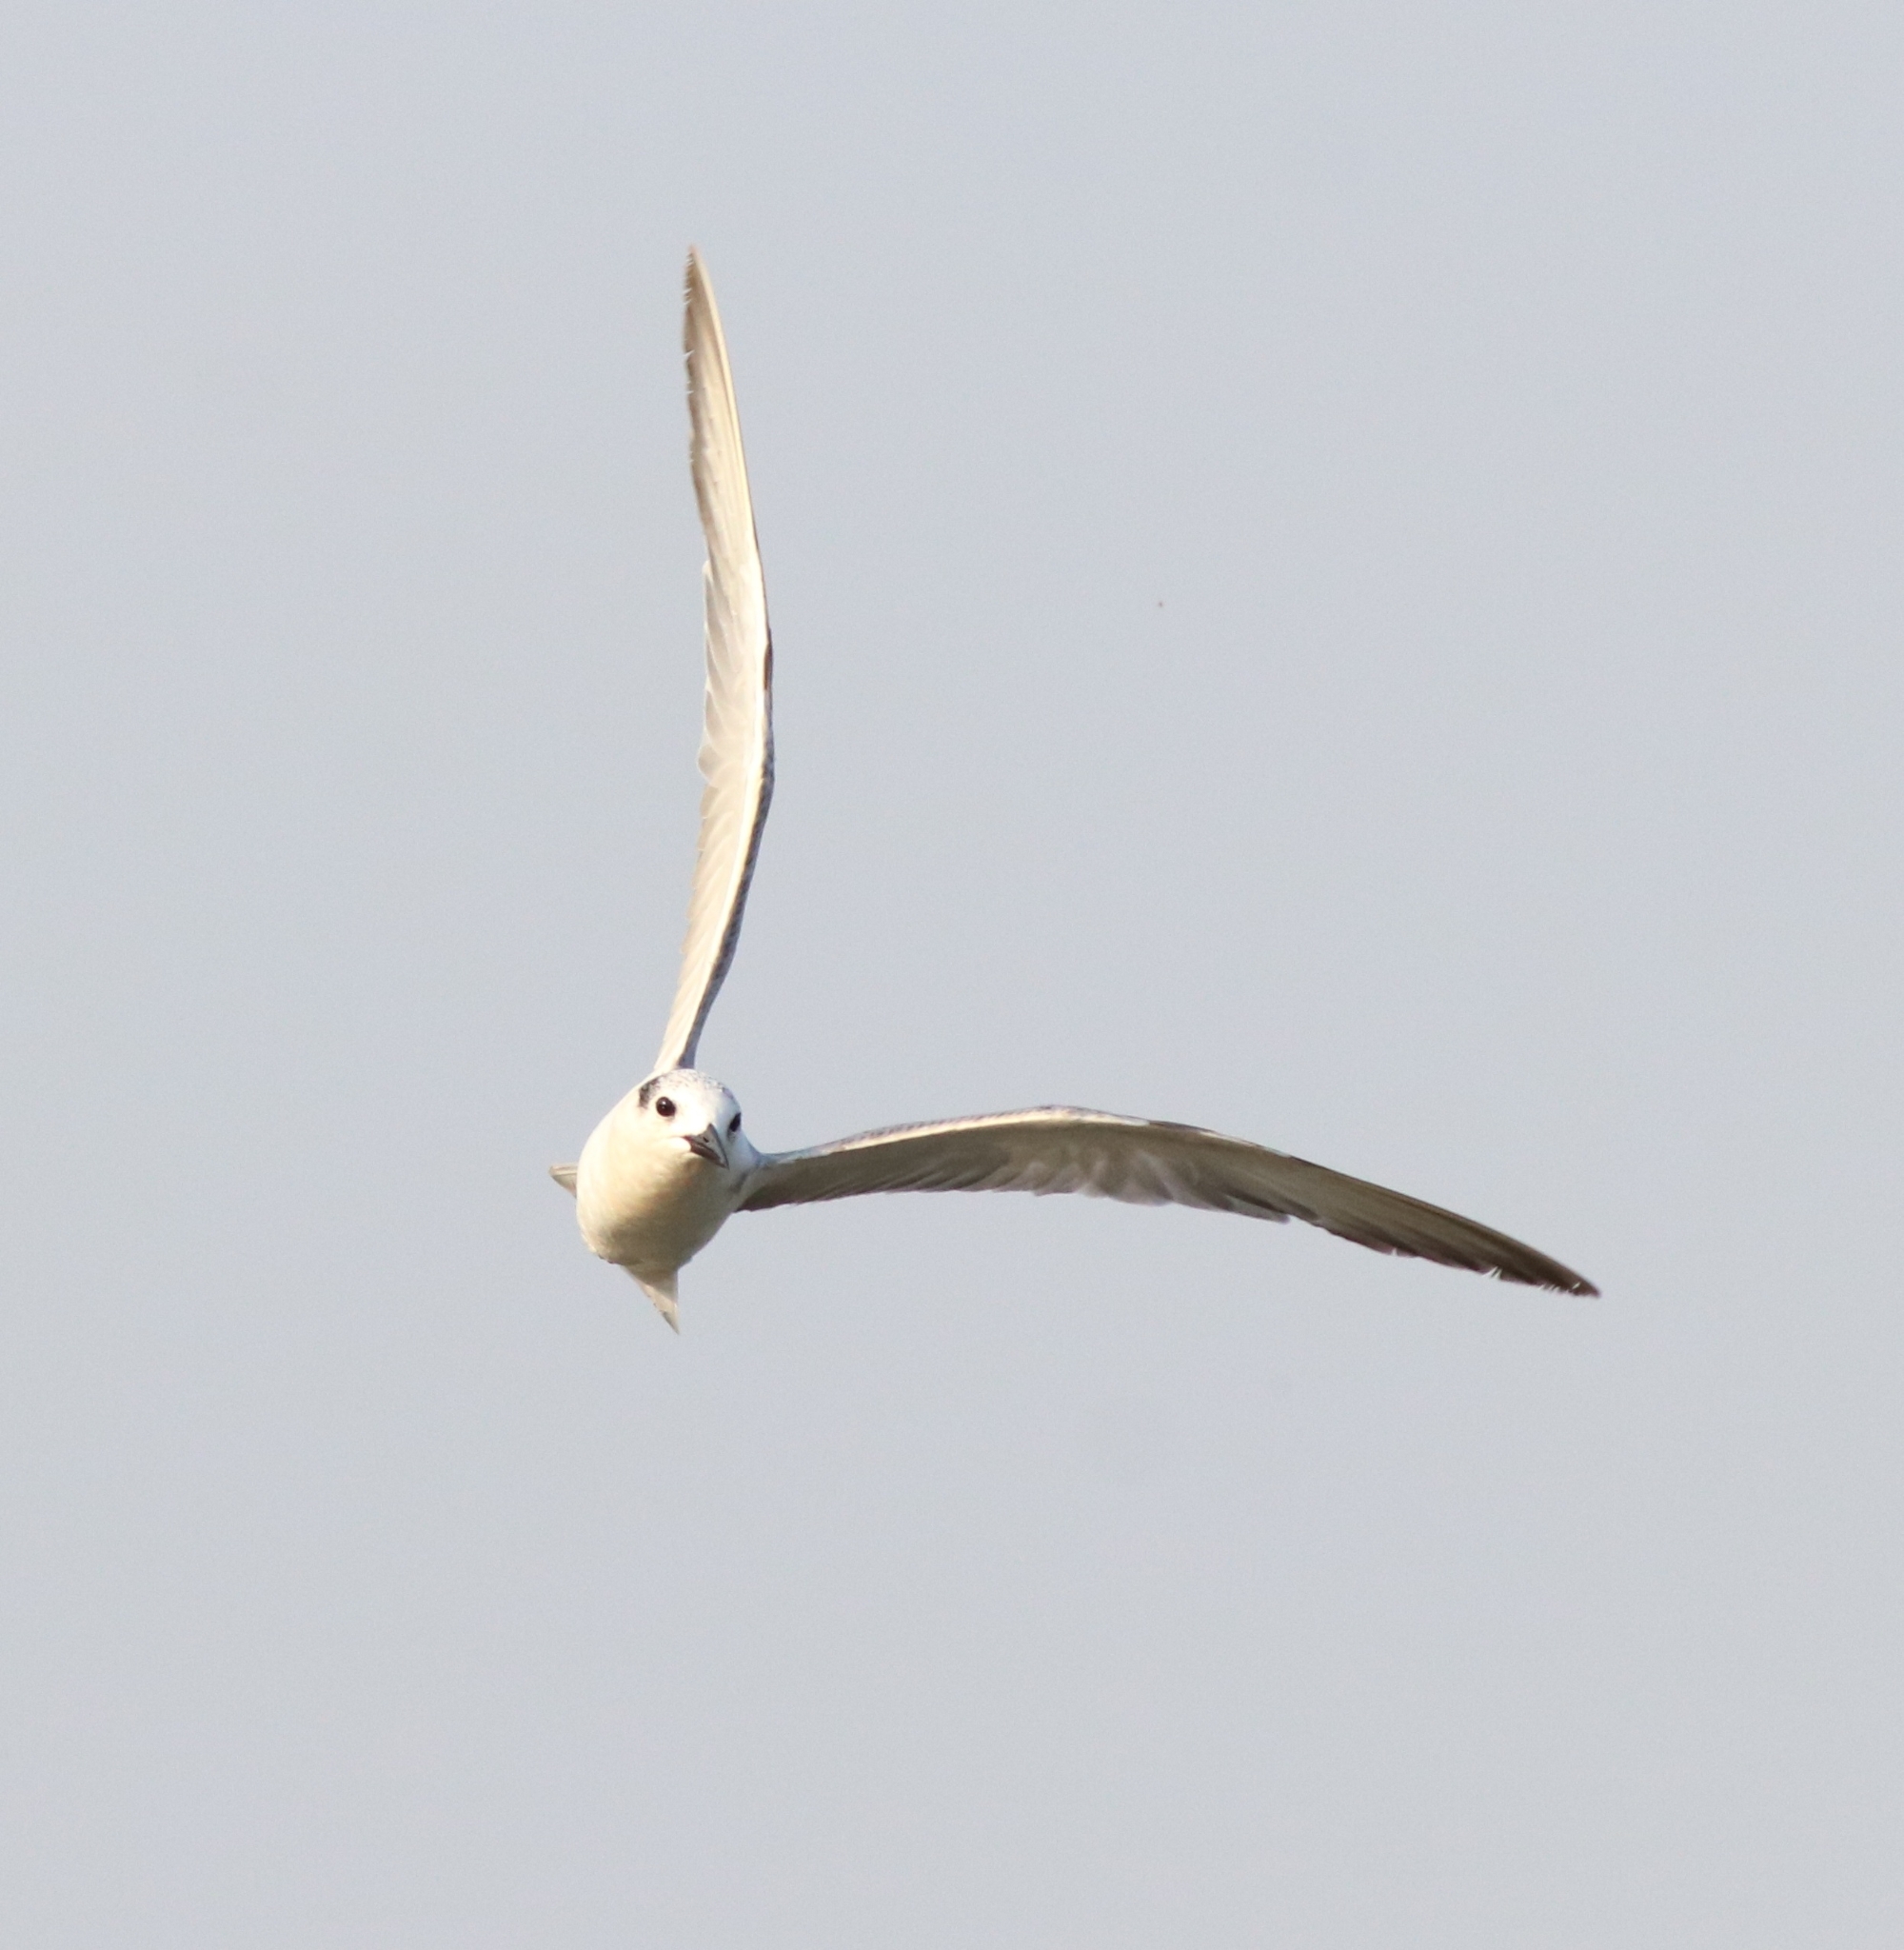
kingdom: Animalia
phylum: Chordata
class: Aves
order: Charadriiformes
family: Laridae
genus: Chlidonias
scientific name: Chlidonias hybrida
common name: Whiskered tern
